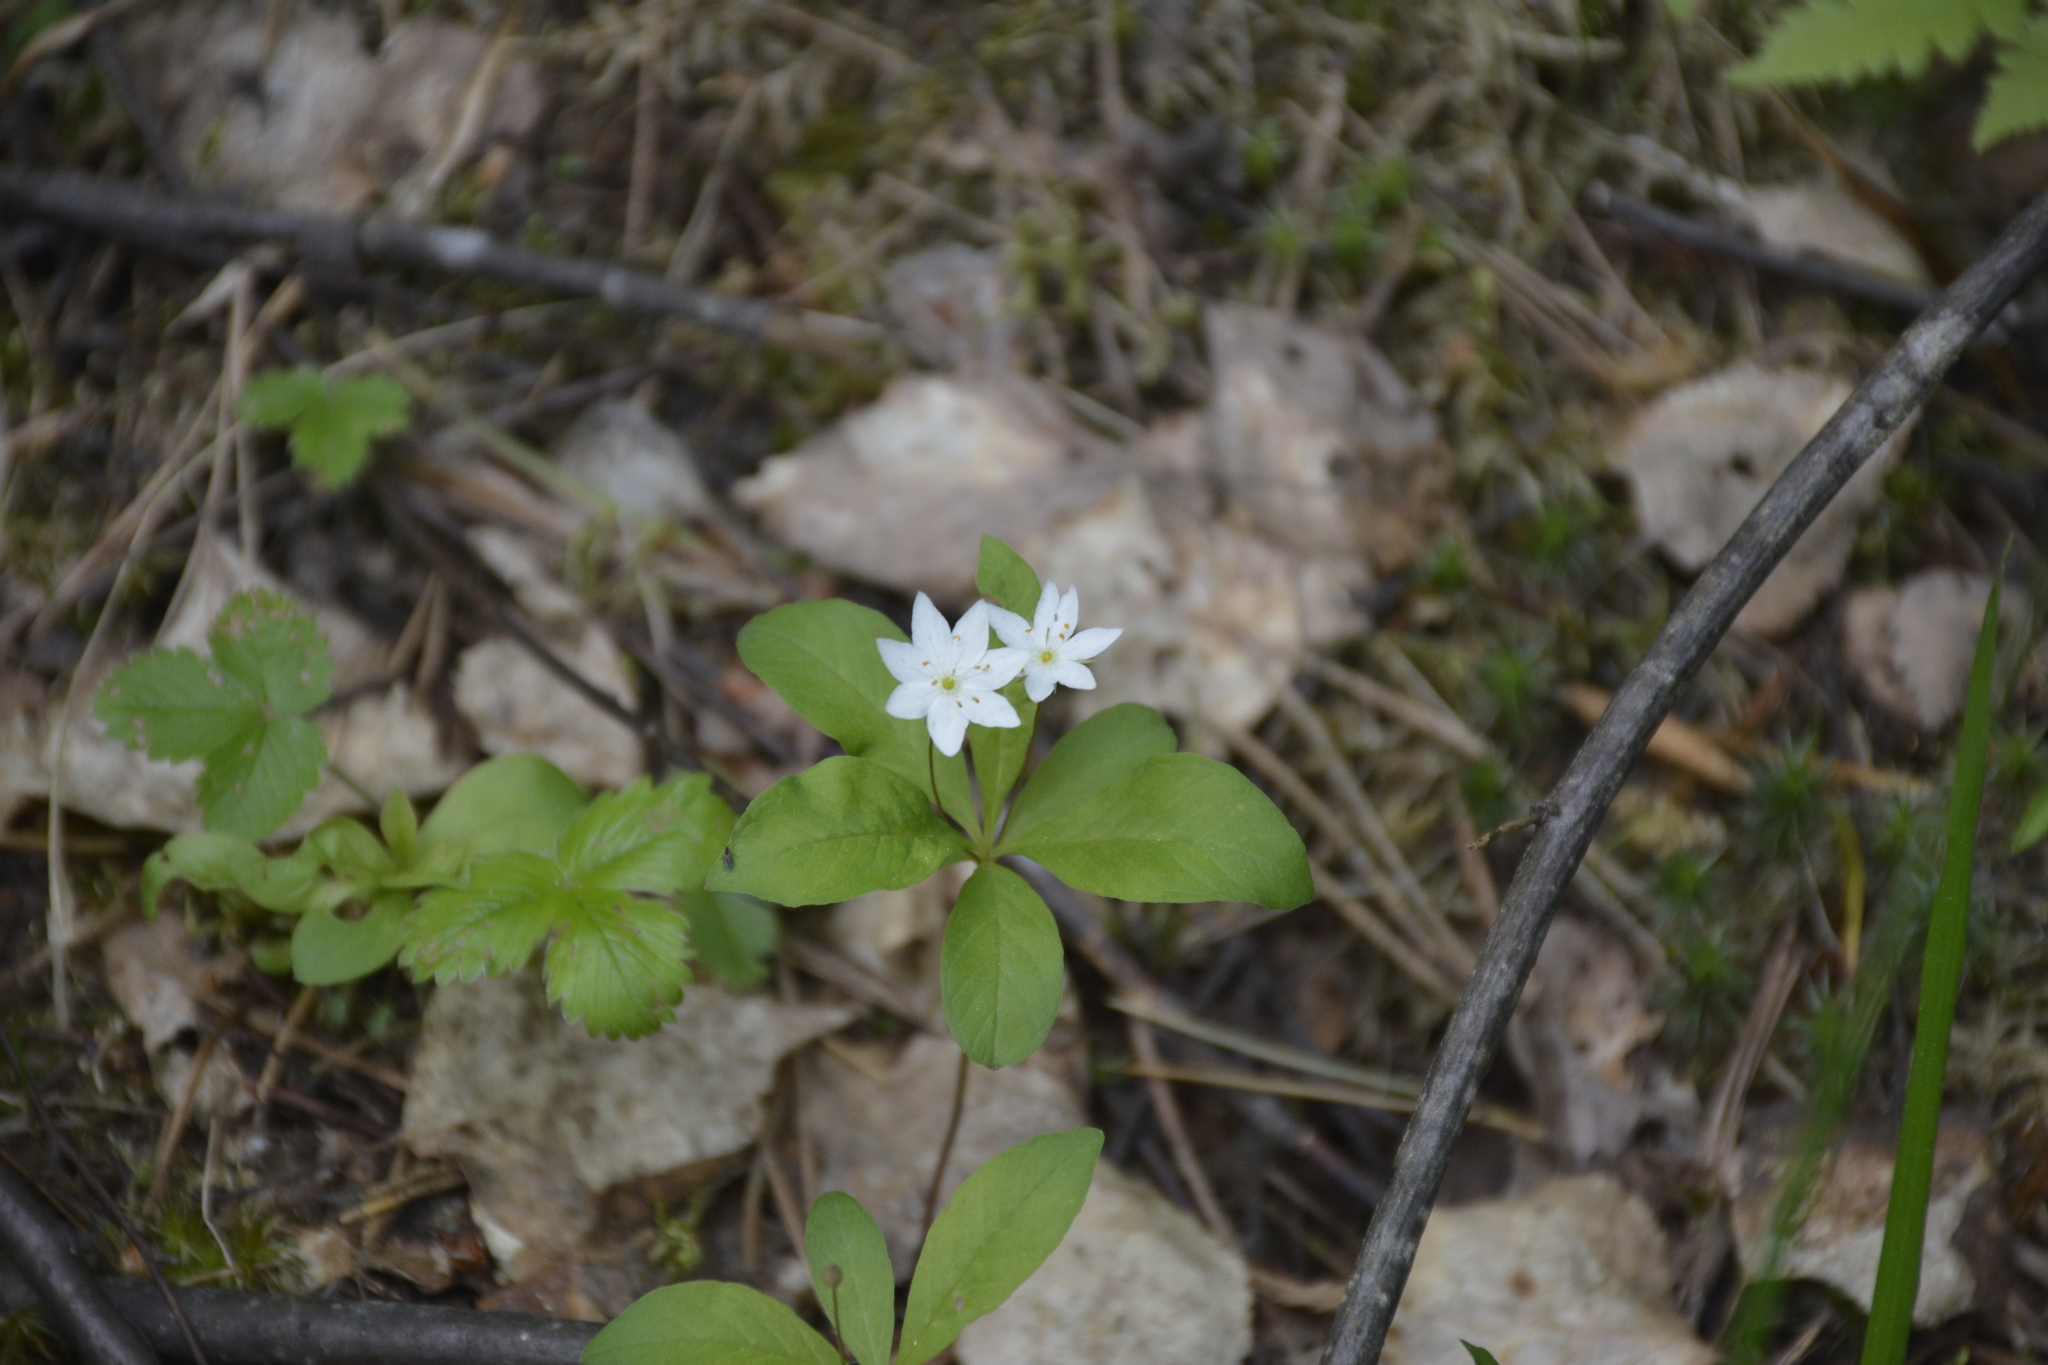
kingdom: Plantae
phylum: Tracheophyta
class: Magnoliopsida
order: Ericales
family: Primulaceae
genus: Lysimachia
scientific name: Lysimachia europaea
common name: Arctic starflower
